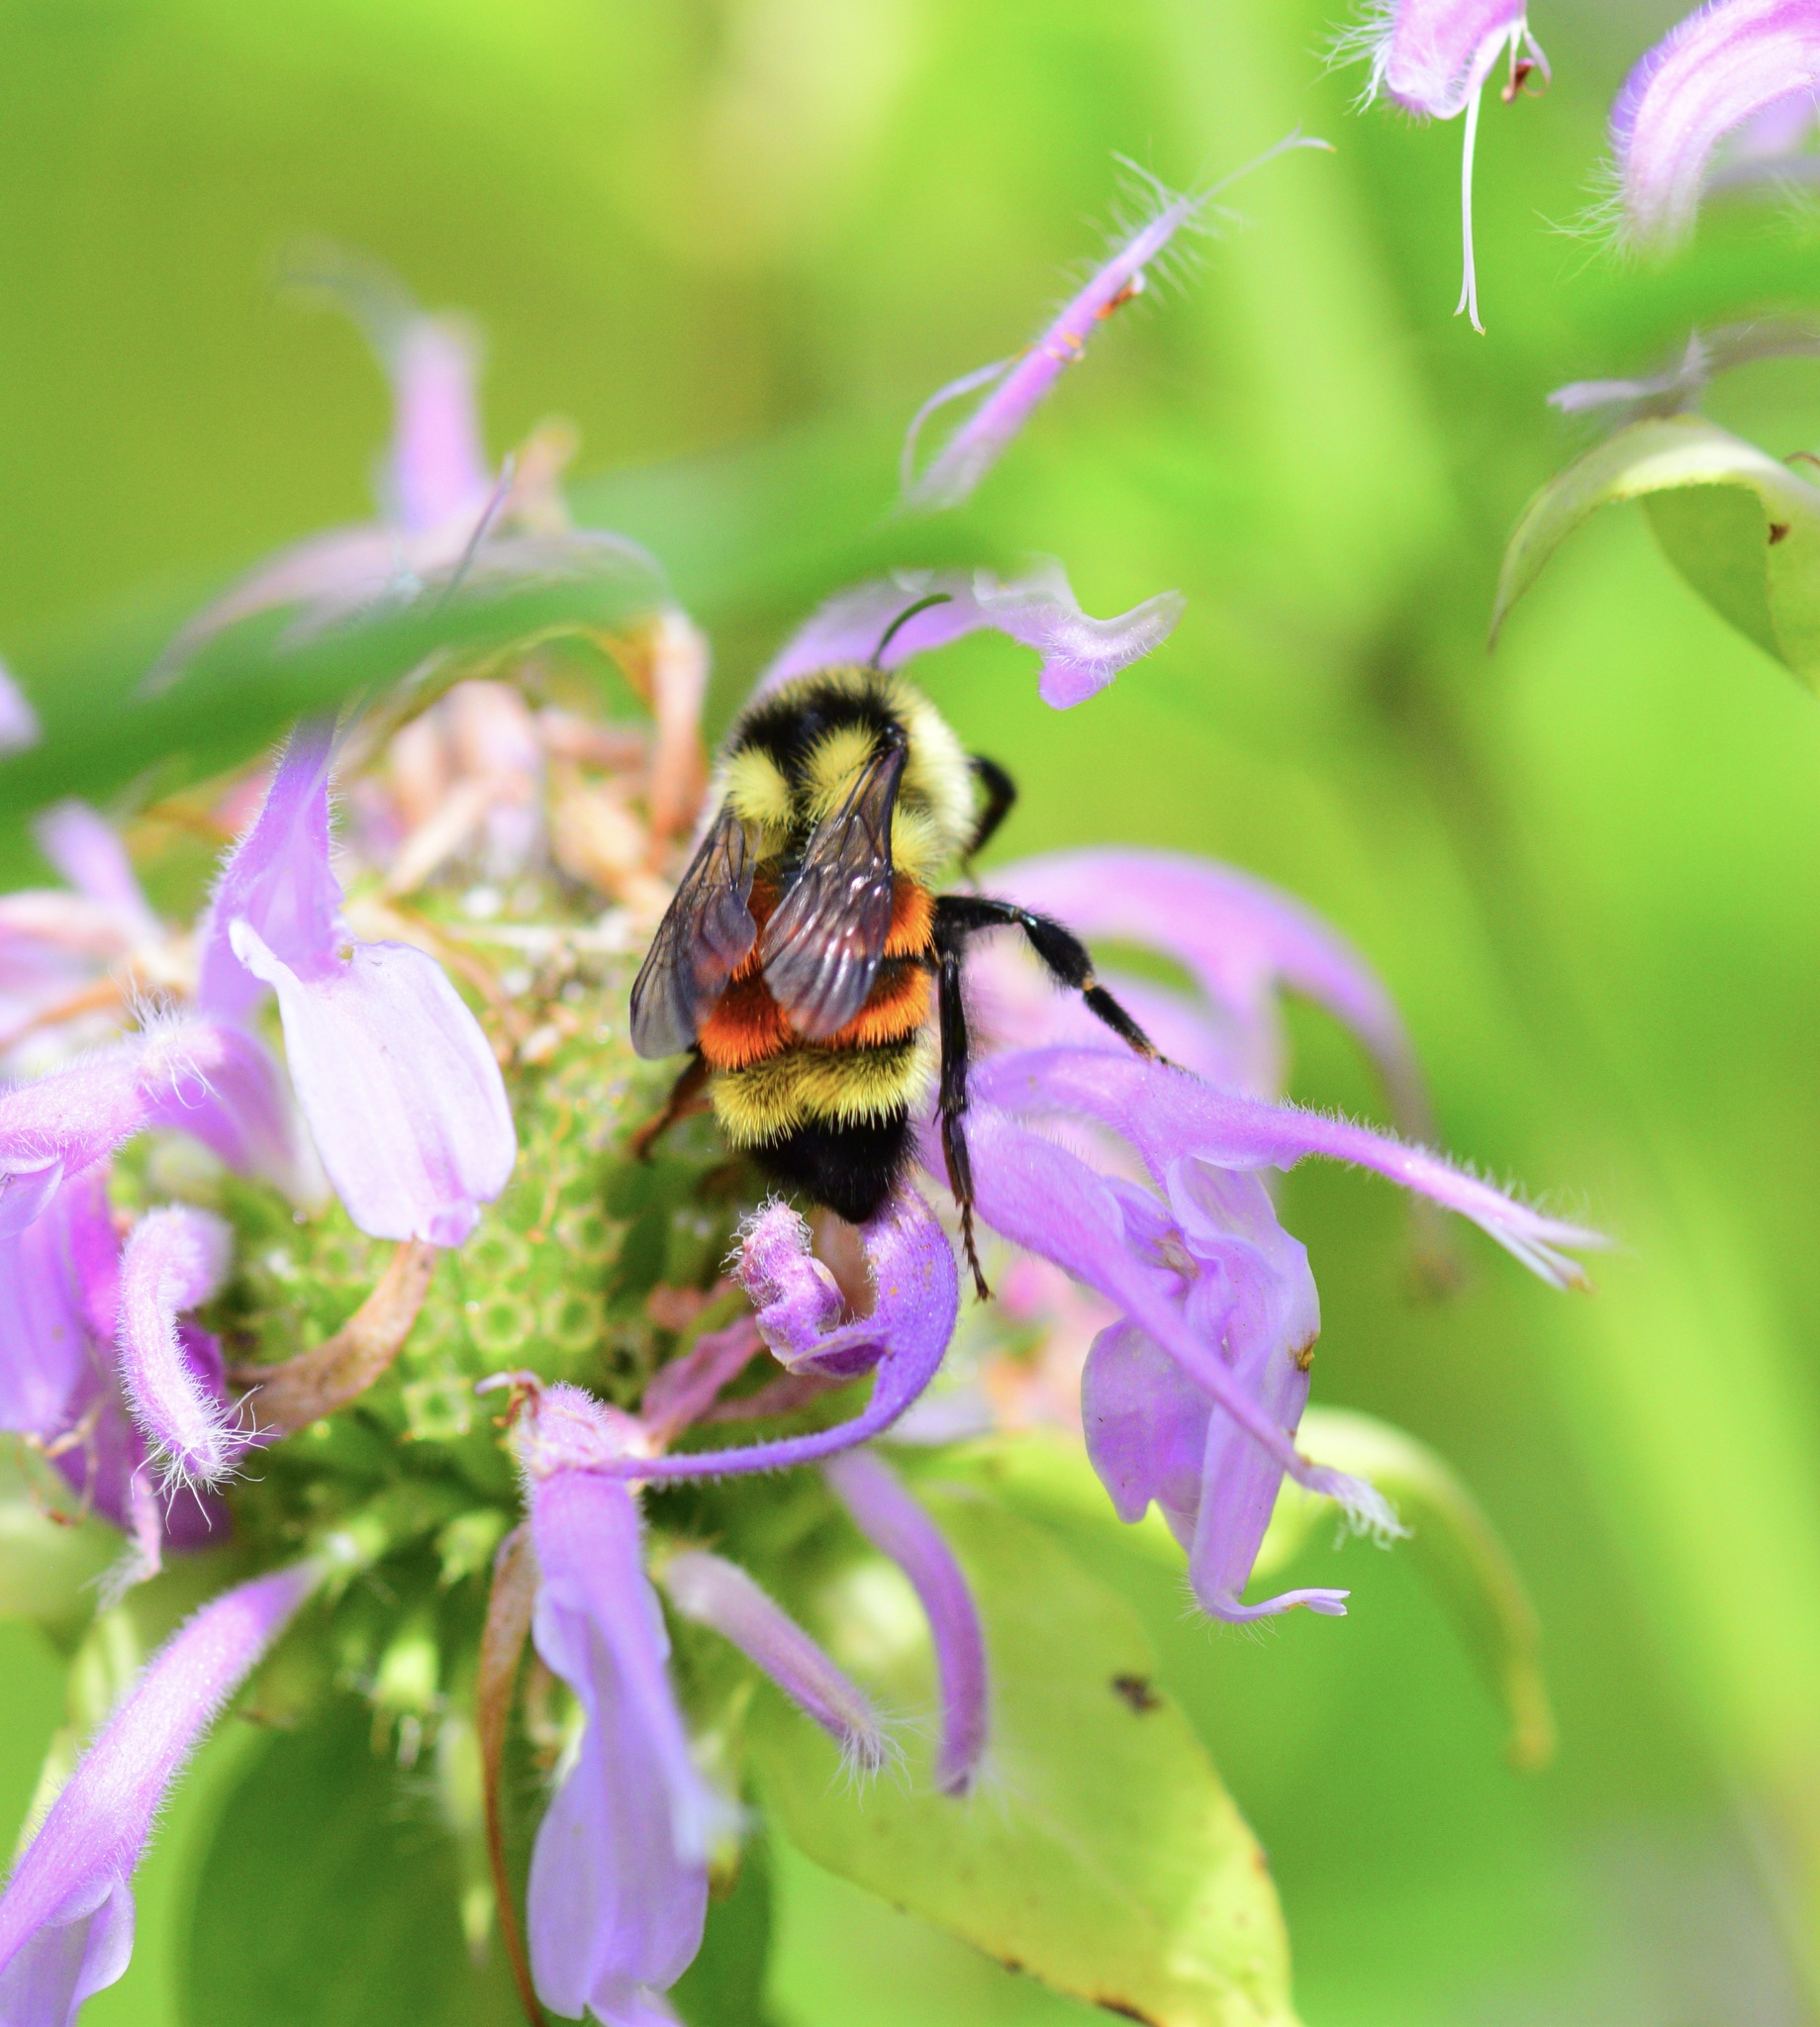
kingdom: Animalia
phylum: Arthropoda
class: Insecta
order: Hymenoptera
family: Apidae
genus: Bombus
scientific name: Bombus ternarius
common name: Tri-colored bumble bee
